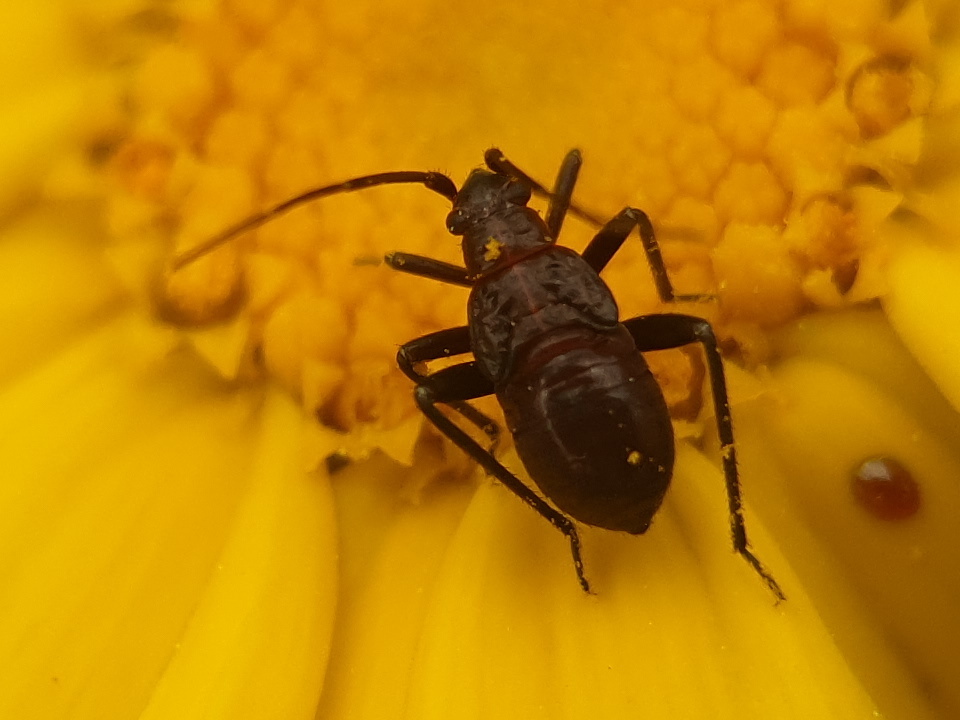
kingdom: Animalia
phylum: Arthropoda
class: Insecta
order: Hemiptera
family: Miridae
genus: Calocoris
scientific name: Calocoris nemoralis
